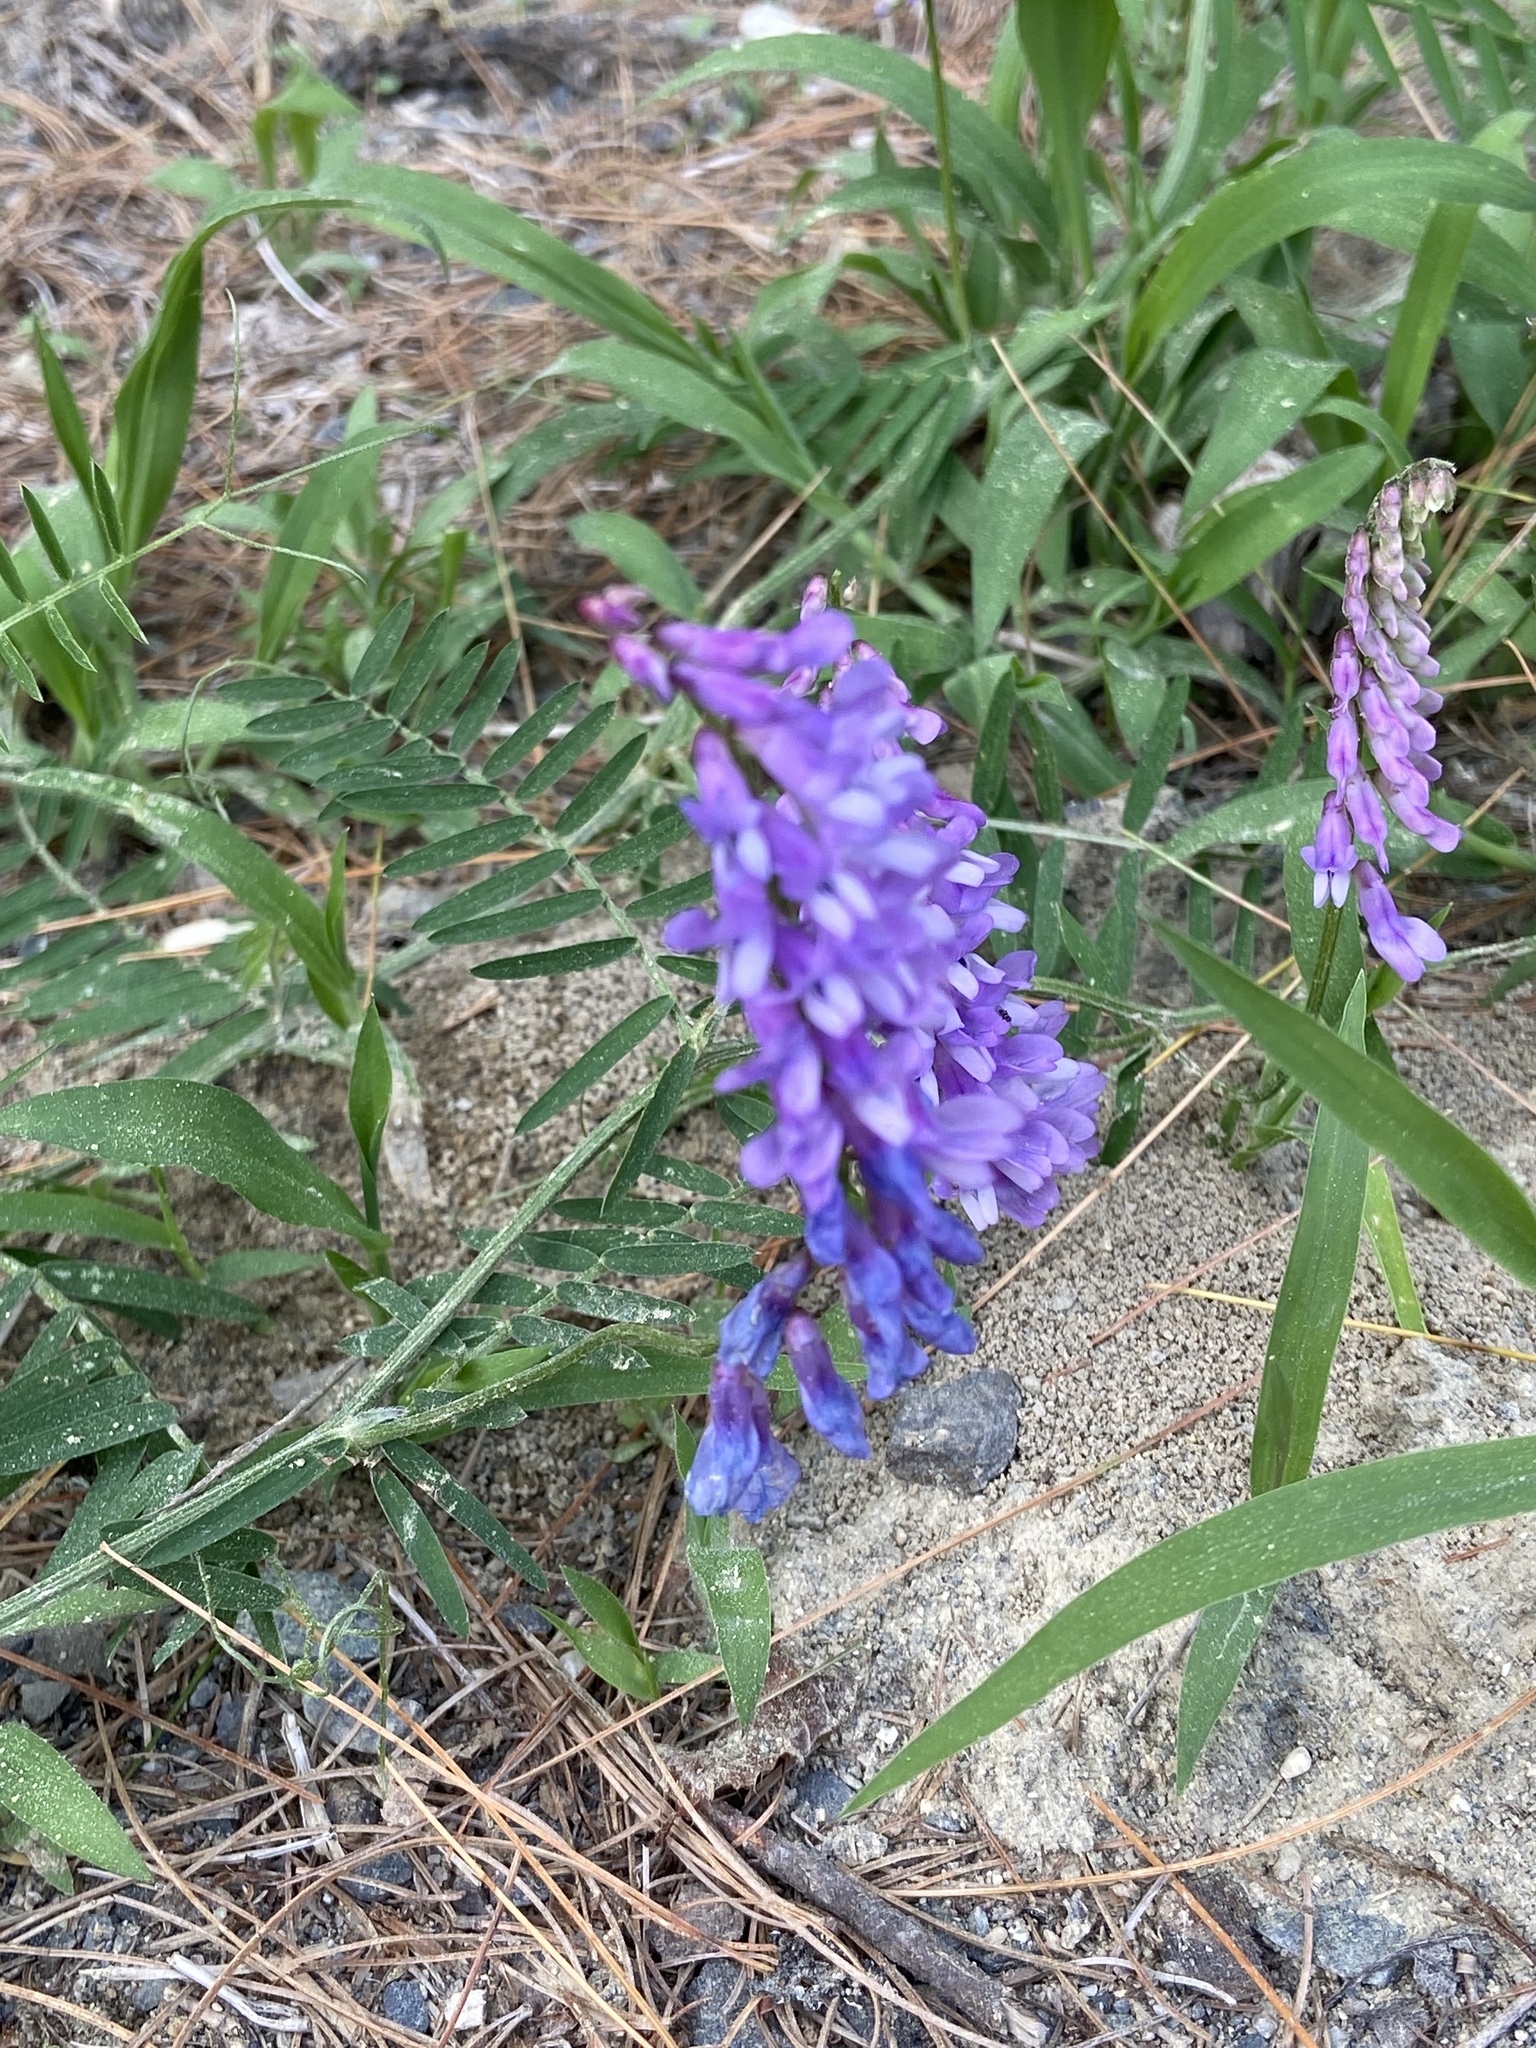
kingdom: Plantae
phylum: Tracheophyta
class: Magnoliopsida
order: Fabales
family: Fabaceae
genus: Vicia
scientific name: Vicia cracca
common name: Bird vetch
